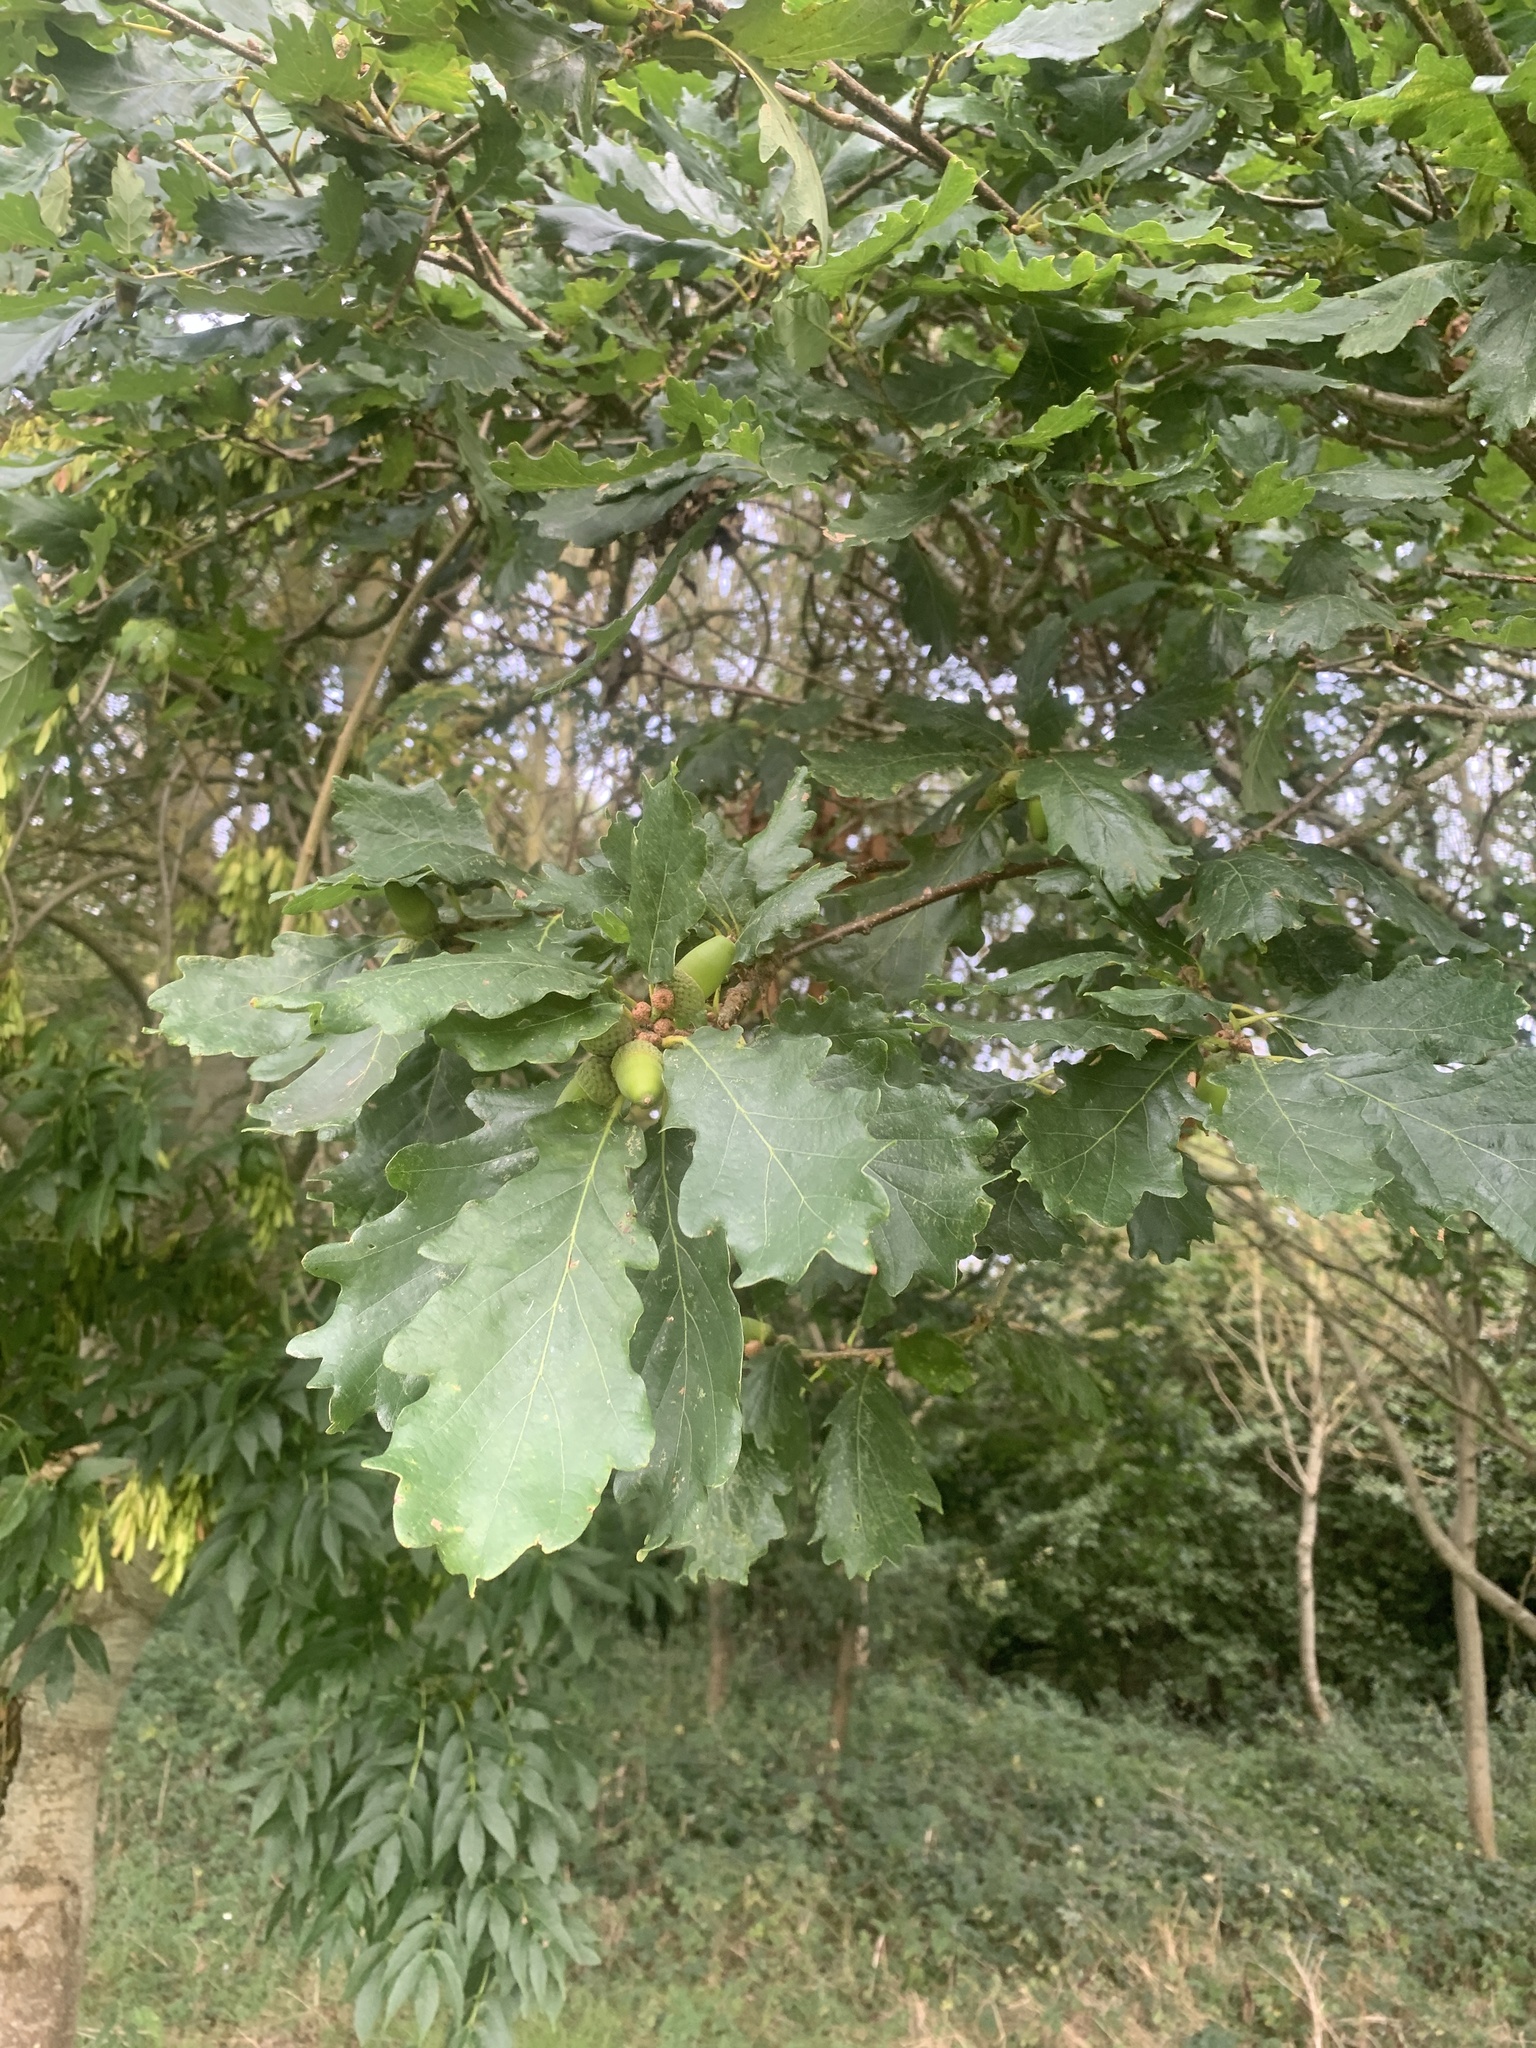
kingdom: Plantae
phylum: Tracheophyta
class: Magnoliopsida
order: Fagales
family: Fagaceae
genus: Quercus
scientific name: Quercus petraea
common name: Sessile oak
